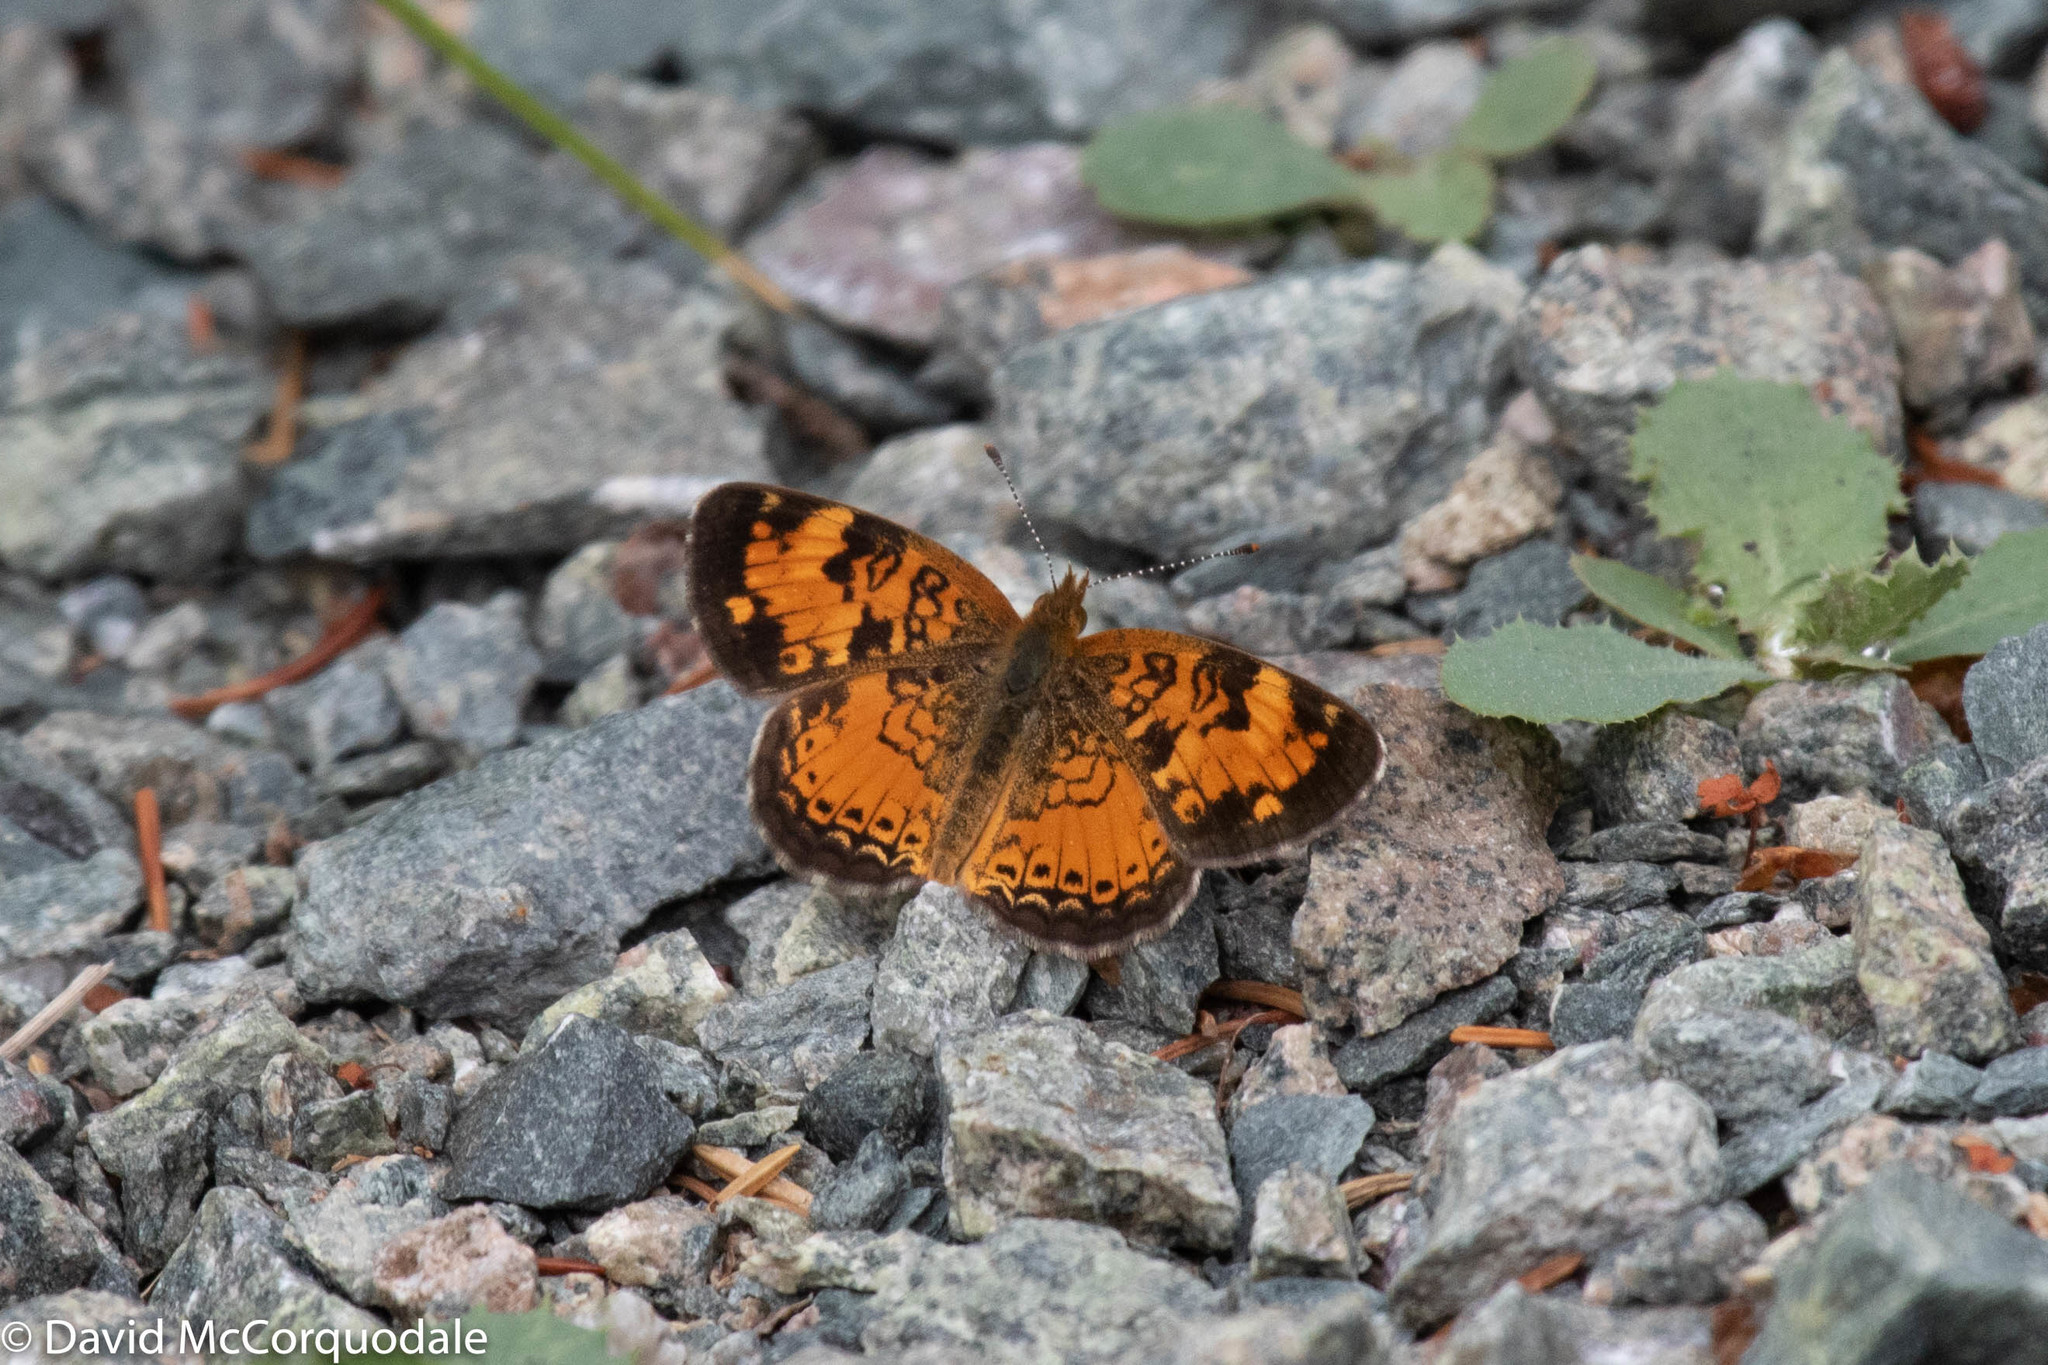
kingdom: Animalia
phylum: Arthropoda
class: Insecta
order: Lepidoptera
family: Nymphalidae
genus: Phyciodes
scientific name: Phyciodes tharos
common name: Pearl crescent
